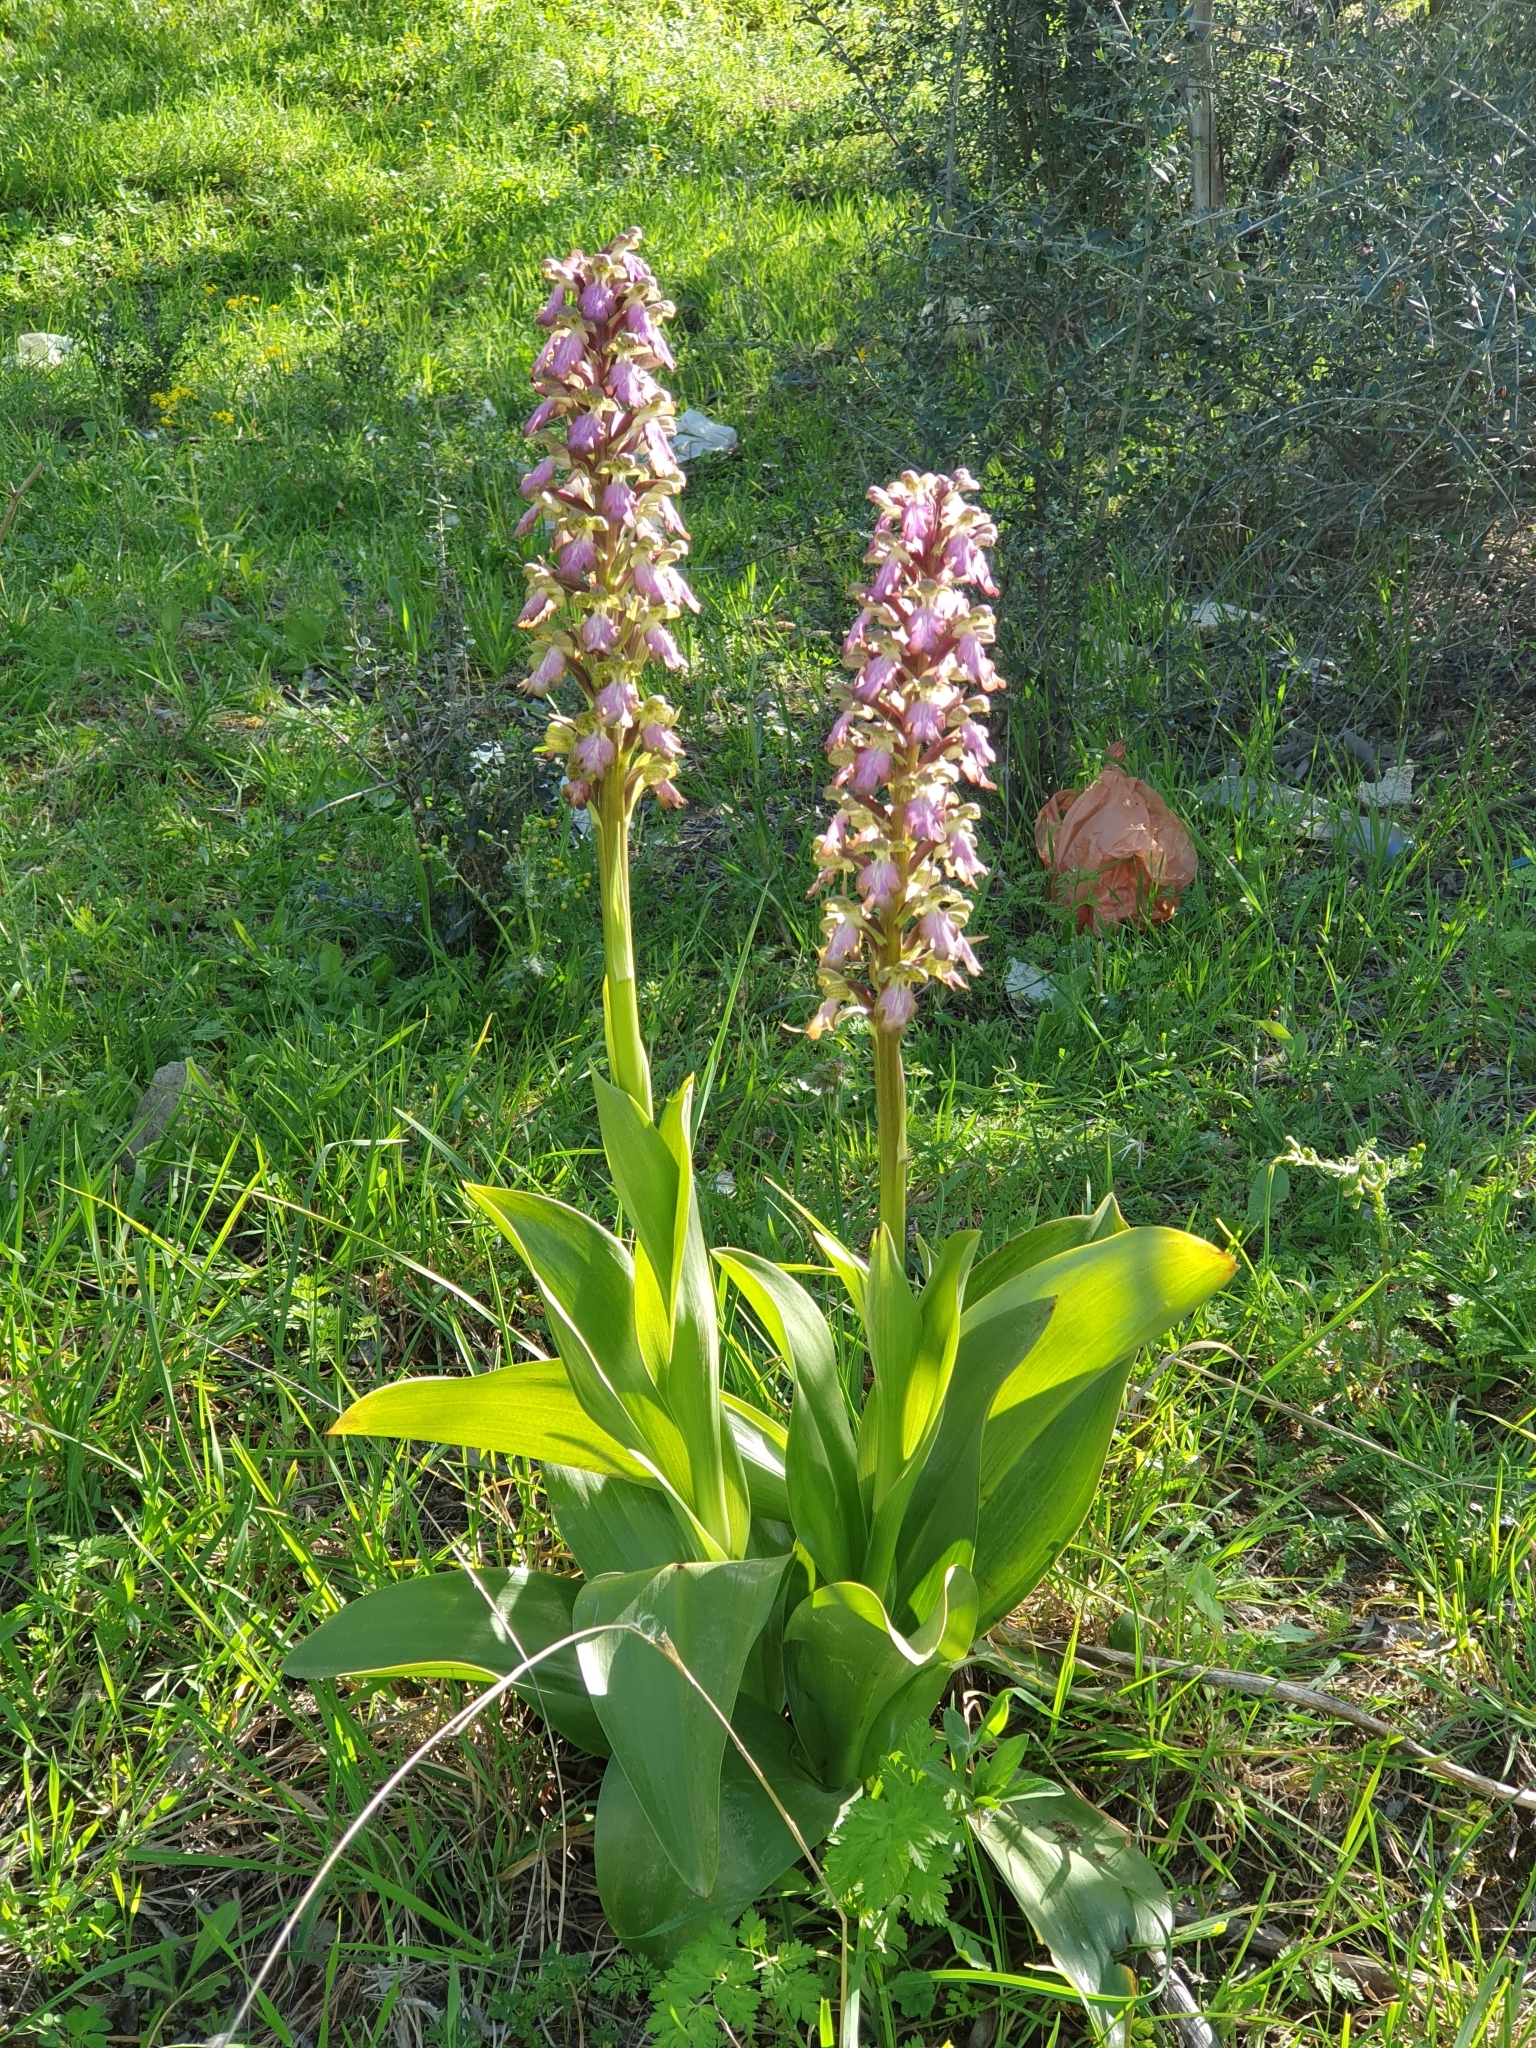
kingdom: Plantae
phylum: Tracheophyta
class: Liliopsida
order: Asparagales
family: Orchidaceae
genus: Himantoglossum
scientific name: Himantoglossum robertianum
